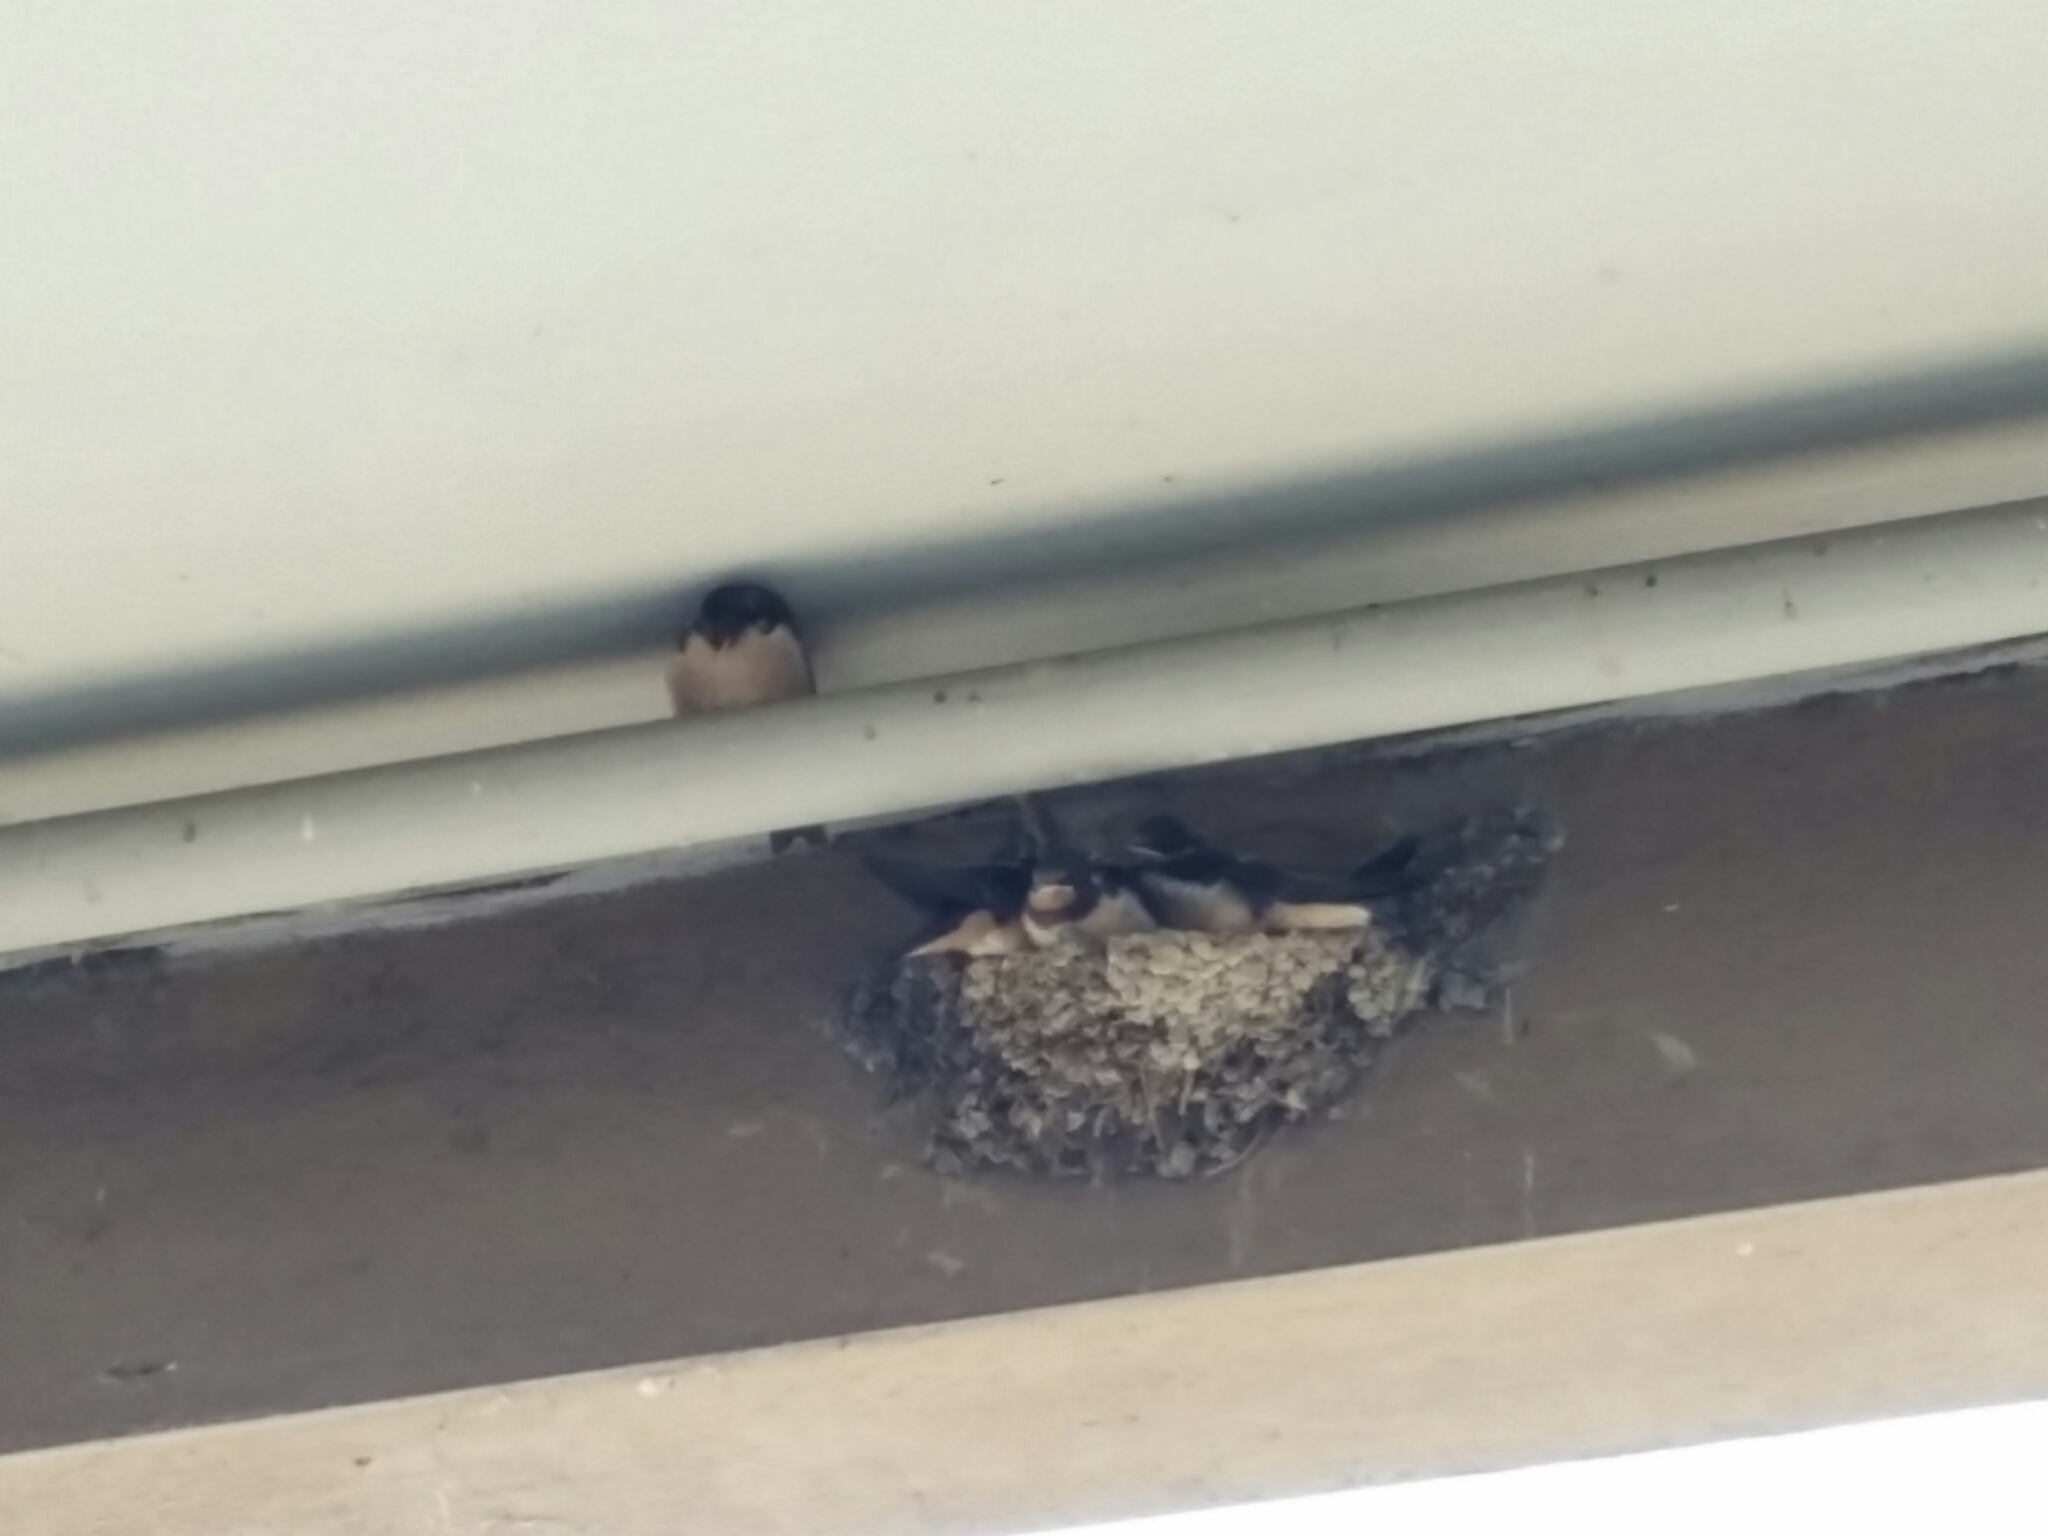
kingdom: Animalia
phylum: Chordata
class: Aves
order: Passeriformes
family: Hirundinidae
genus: Hirundo
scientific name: Hirundo rustica
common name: Barn swallow
